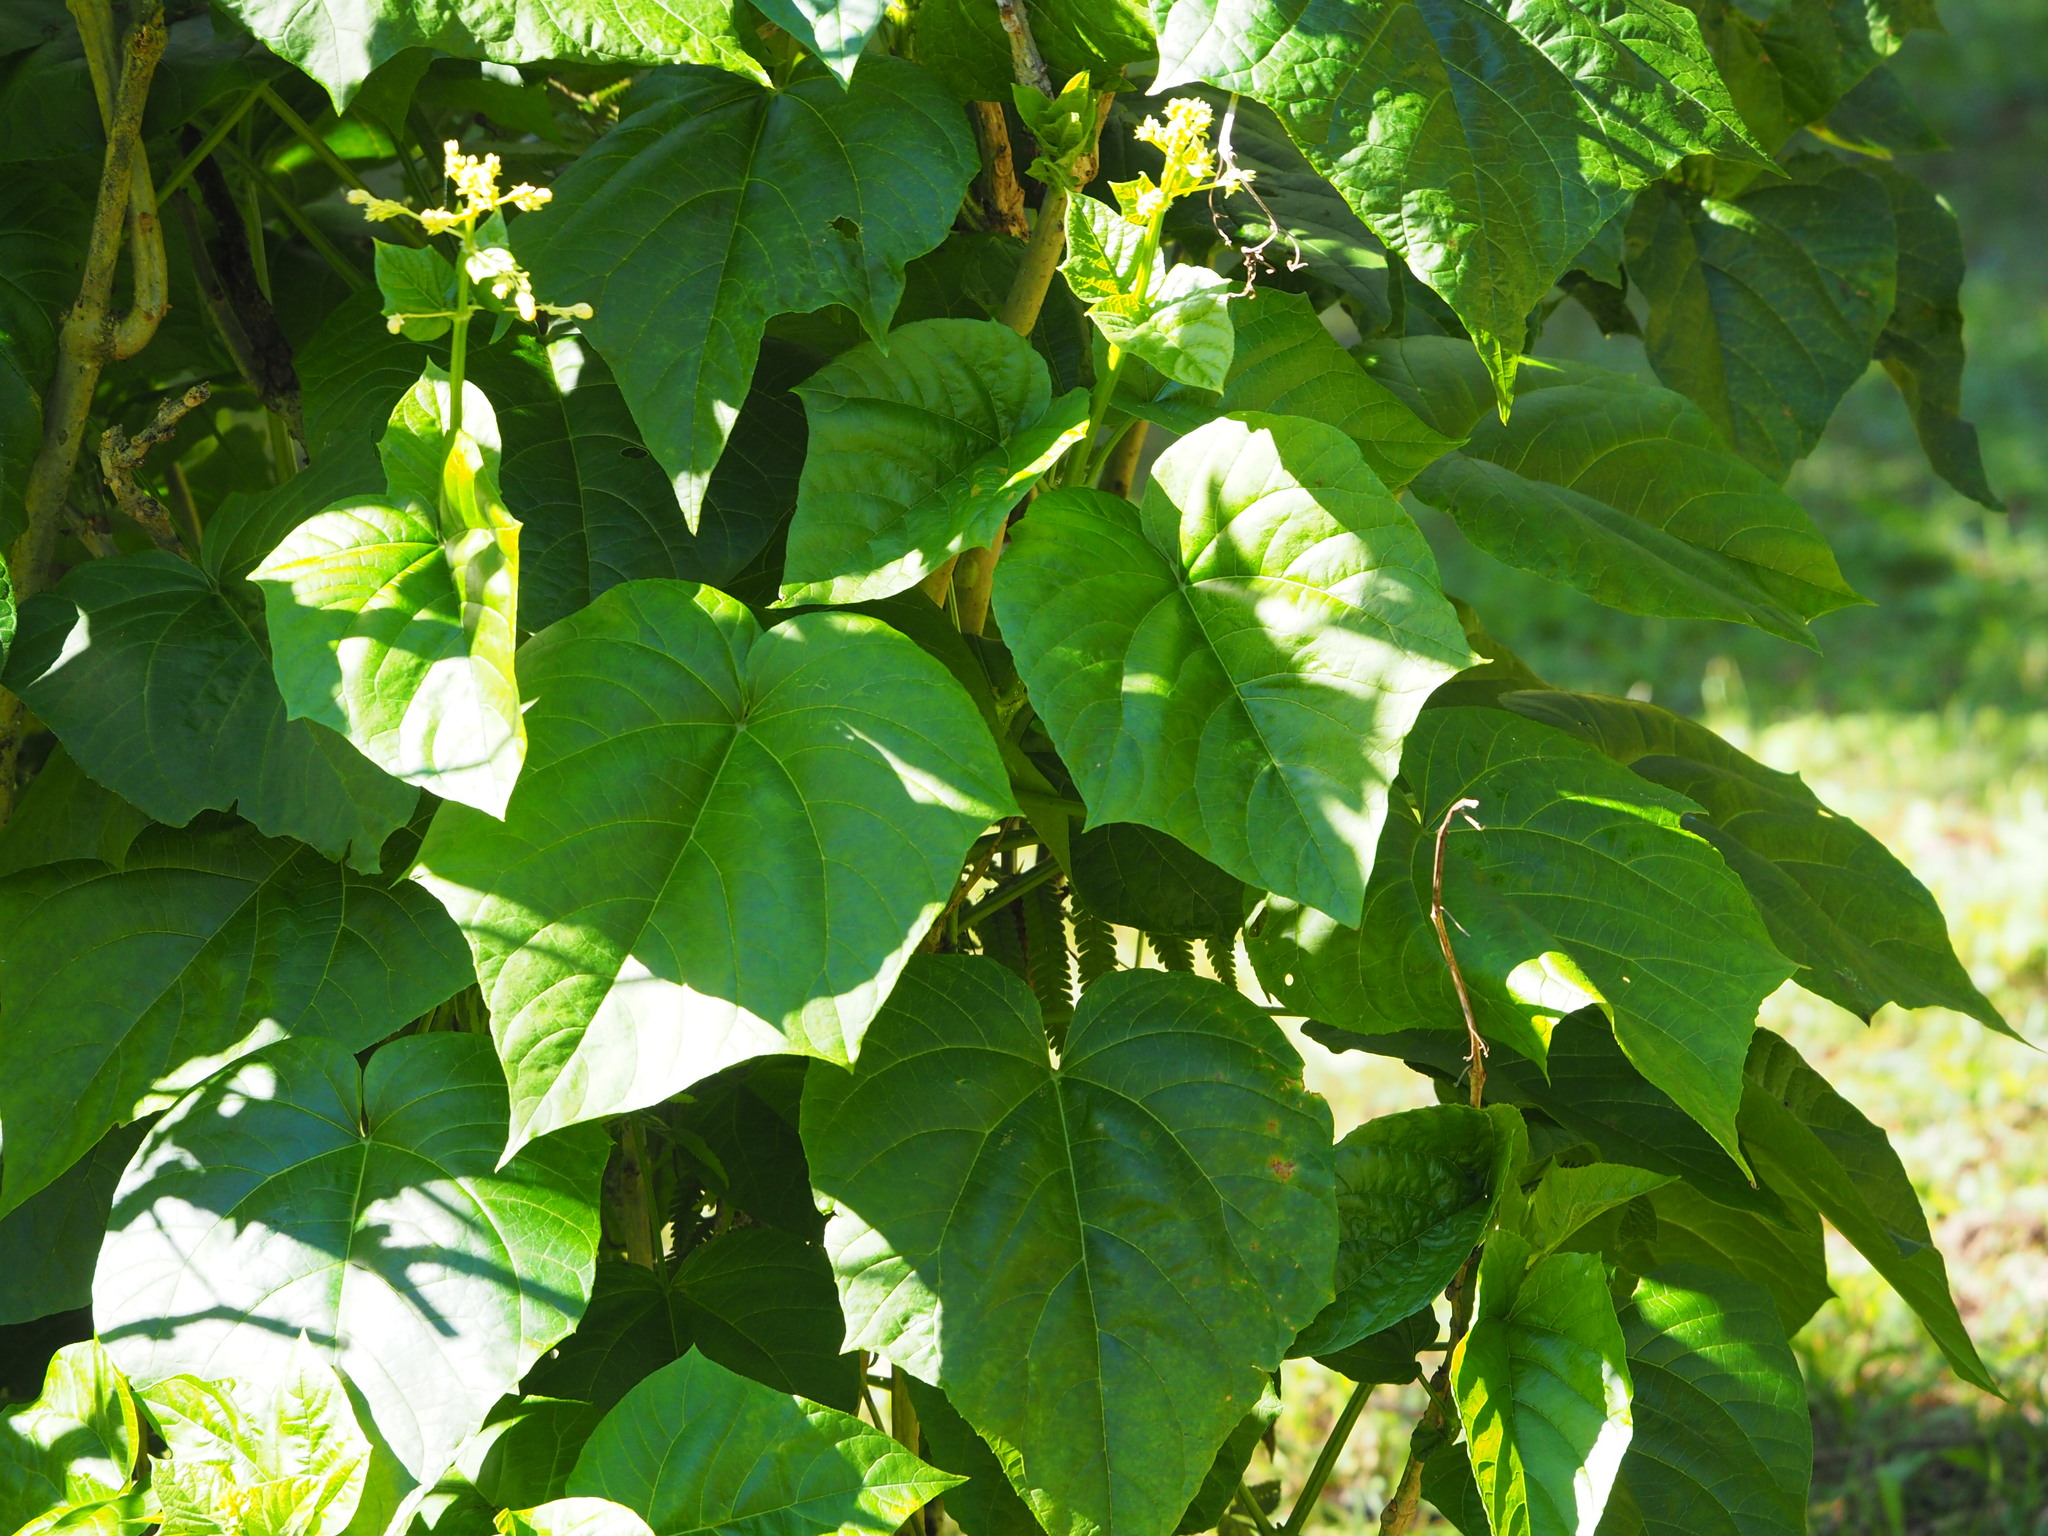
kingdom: Plantae
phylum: Tracheophyta
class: Magnoliopsida
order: Lamiales
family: Lamiaceae
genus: Clerodendrum
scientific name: Clerodendrum japonicum
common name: Japanese glorybower
